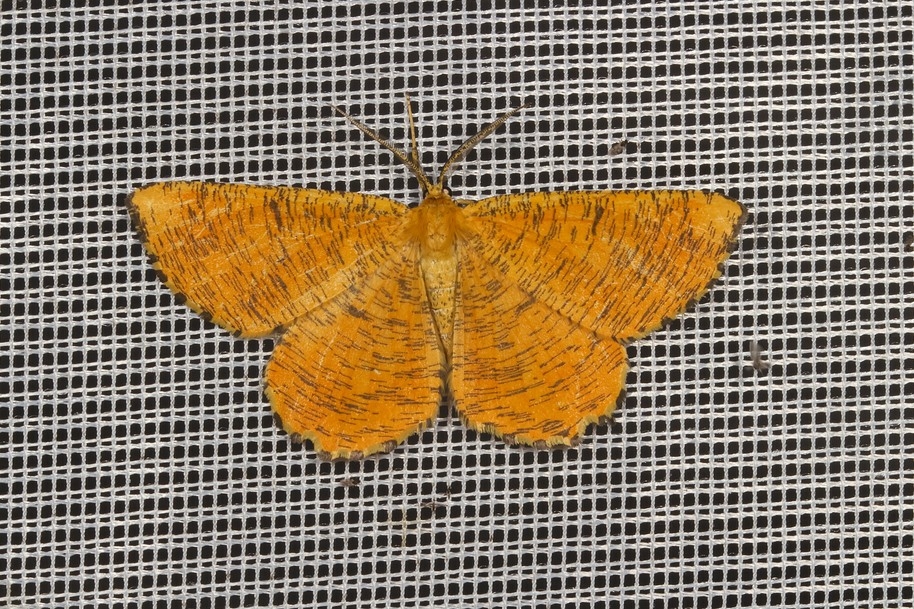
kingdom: Animalia
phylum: Arthropoda
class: Insecta
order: Lepidoptera
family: Geometridae
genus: Angerona
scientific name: Angerona prunaria
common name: Orange moth
